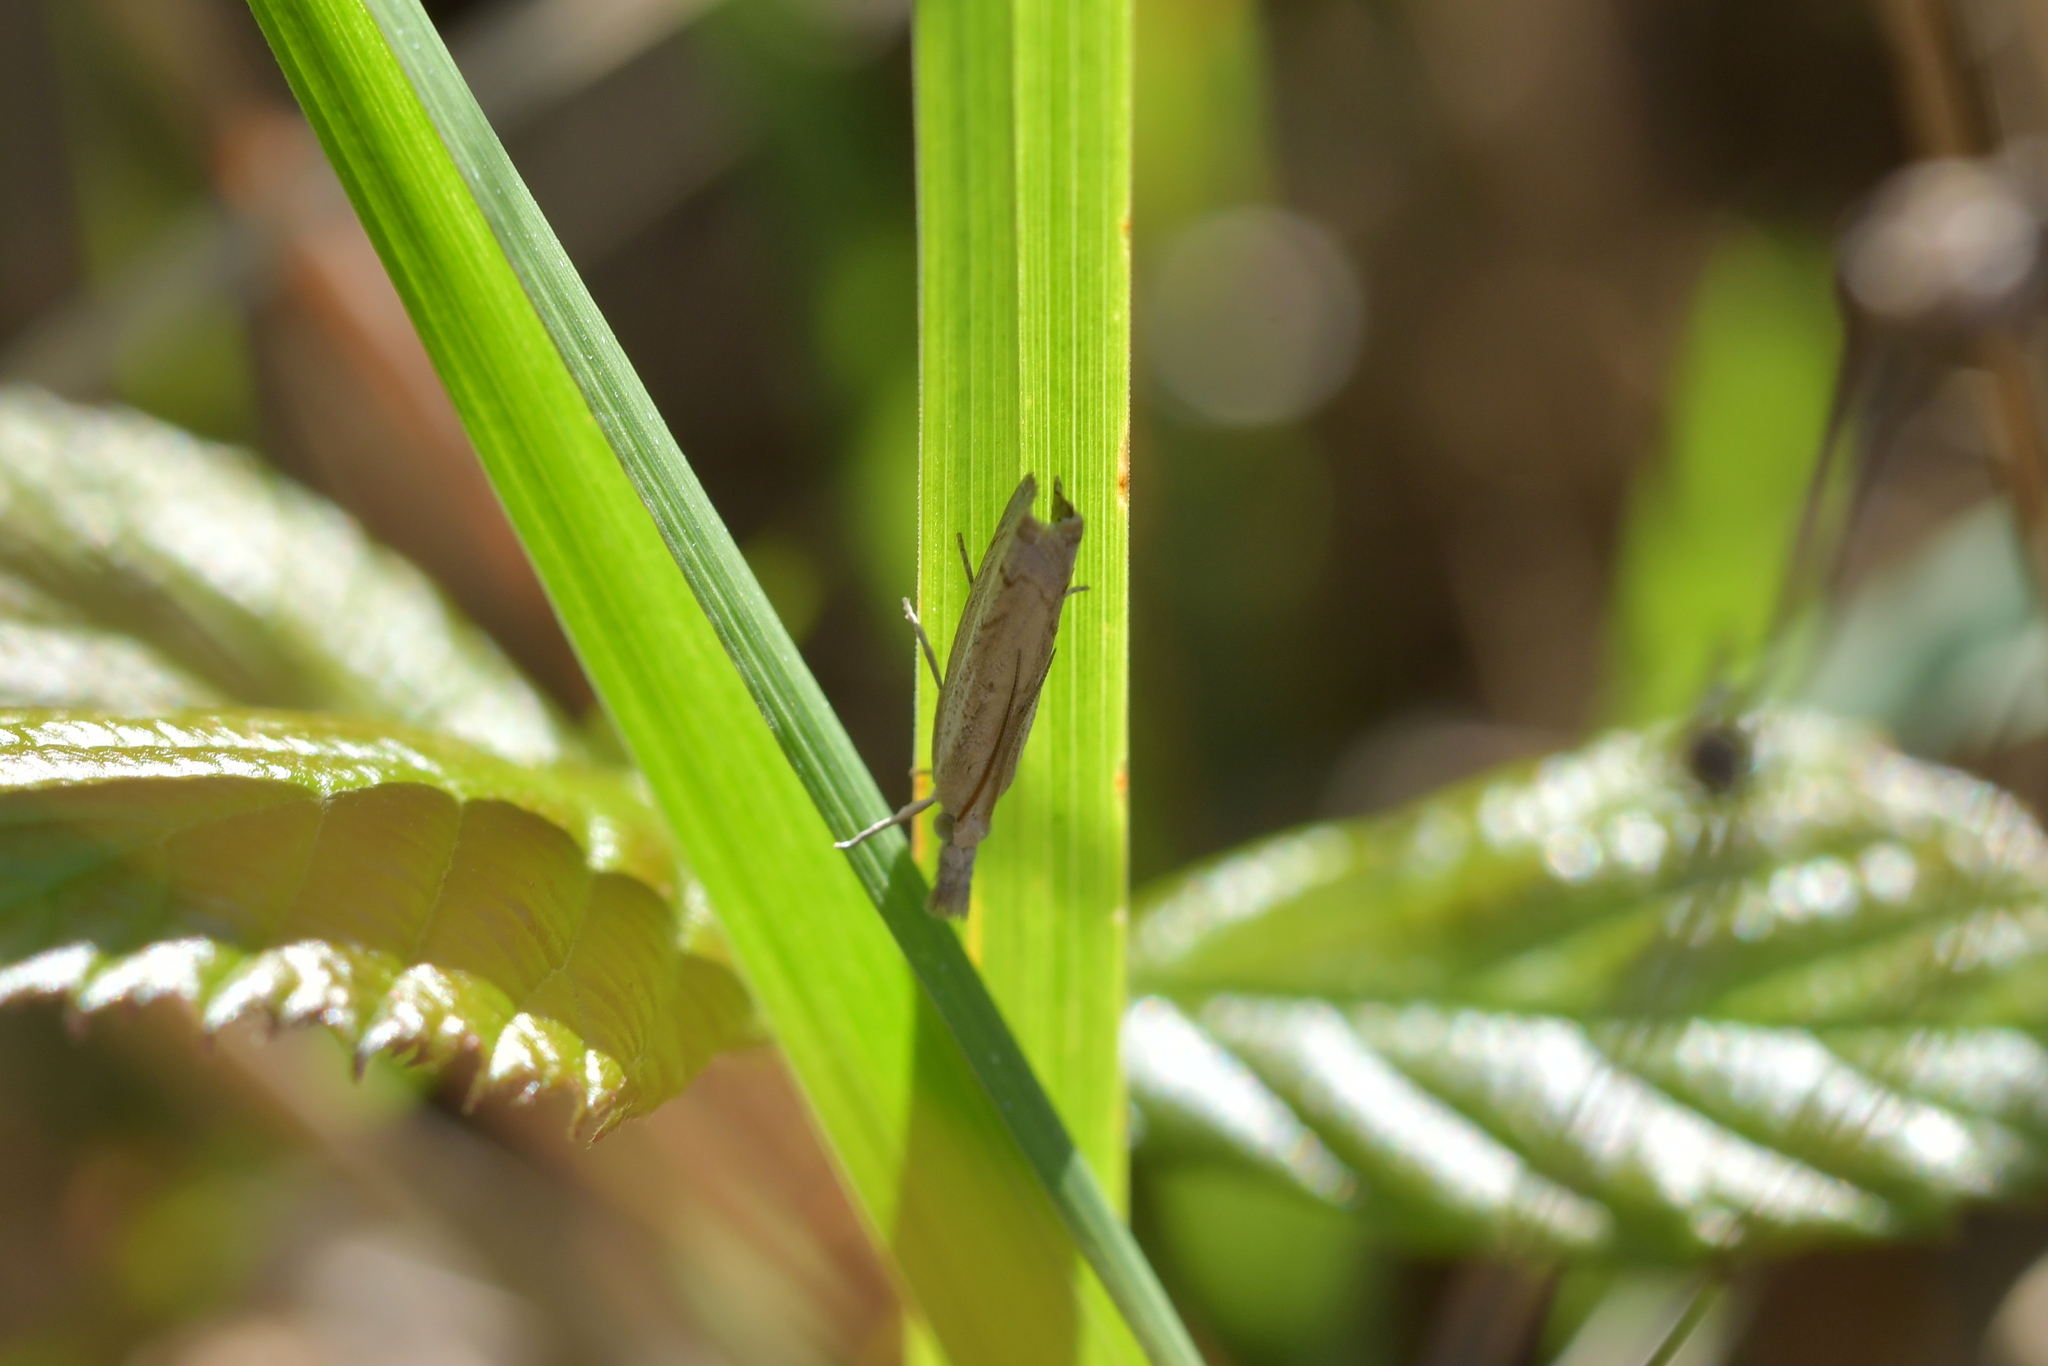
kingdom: Animalia
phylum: Arthropoda
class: Insecta
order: Lepidoptera
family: Crambidae
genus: Culladia
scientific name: Culladia cuneiferellus
